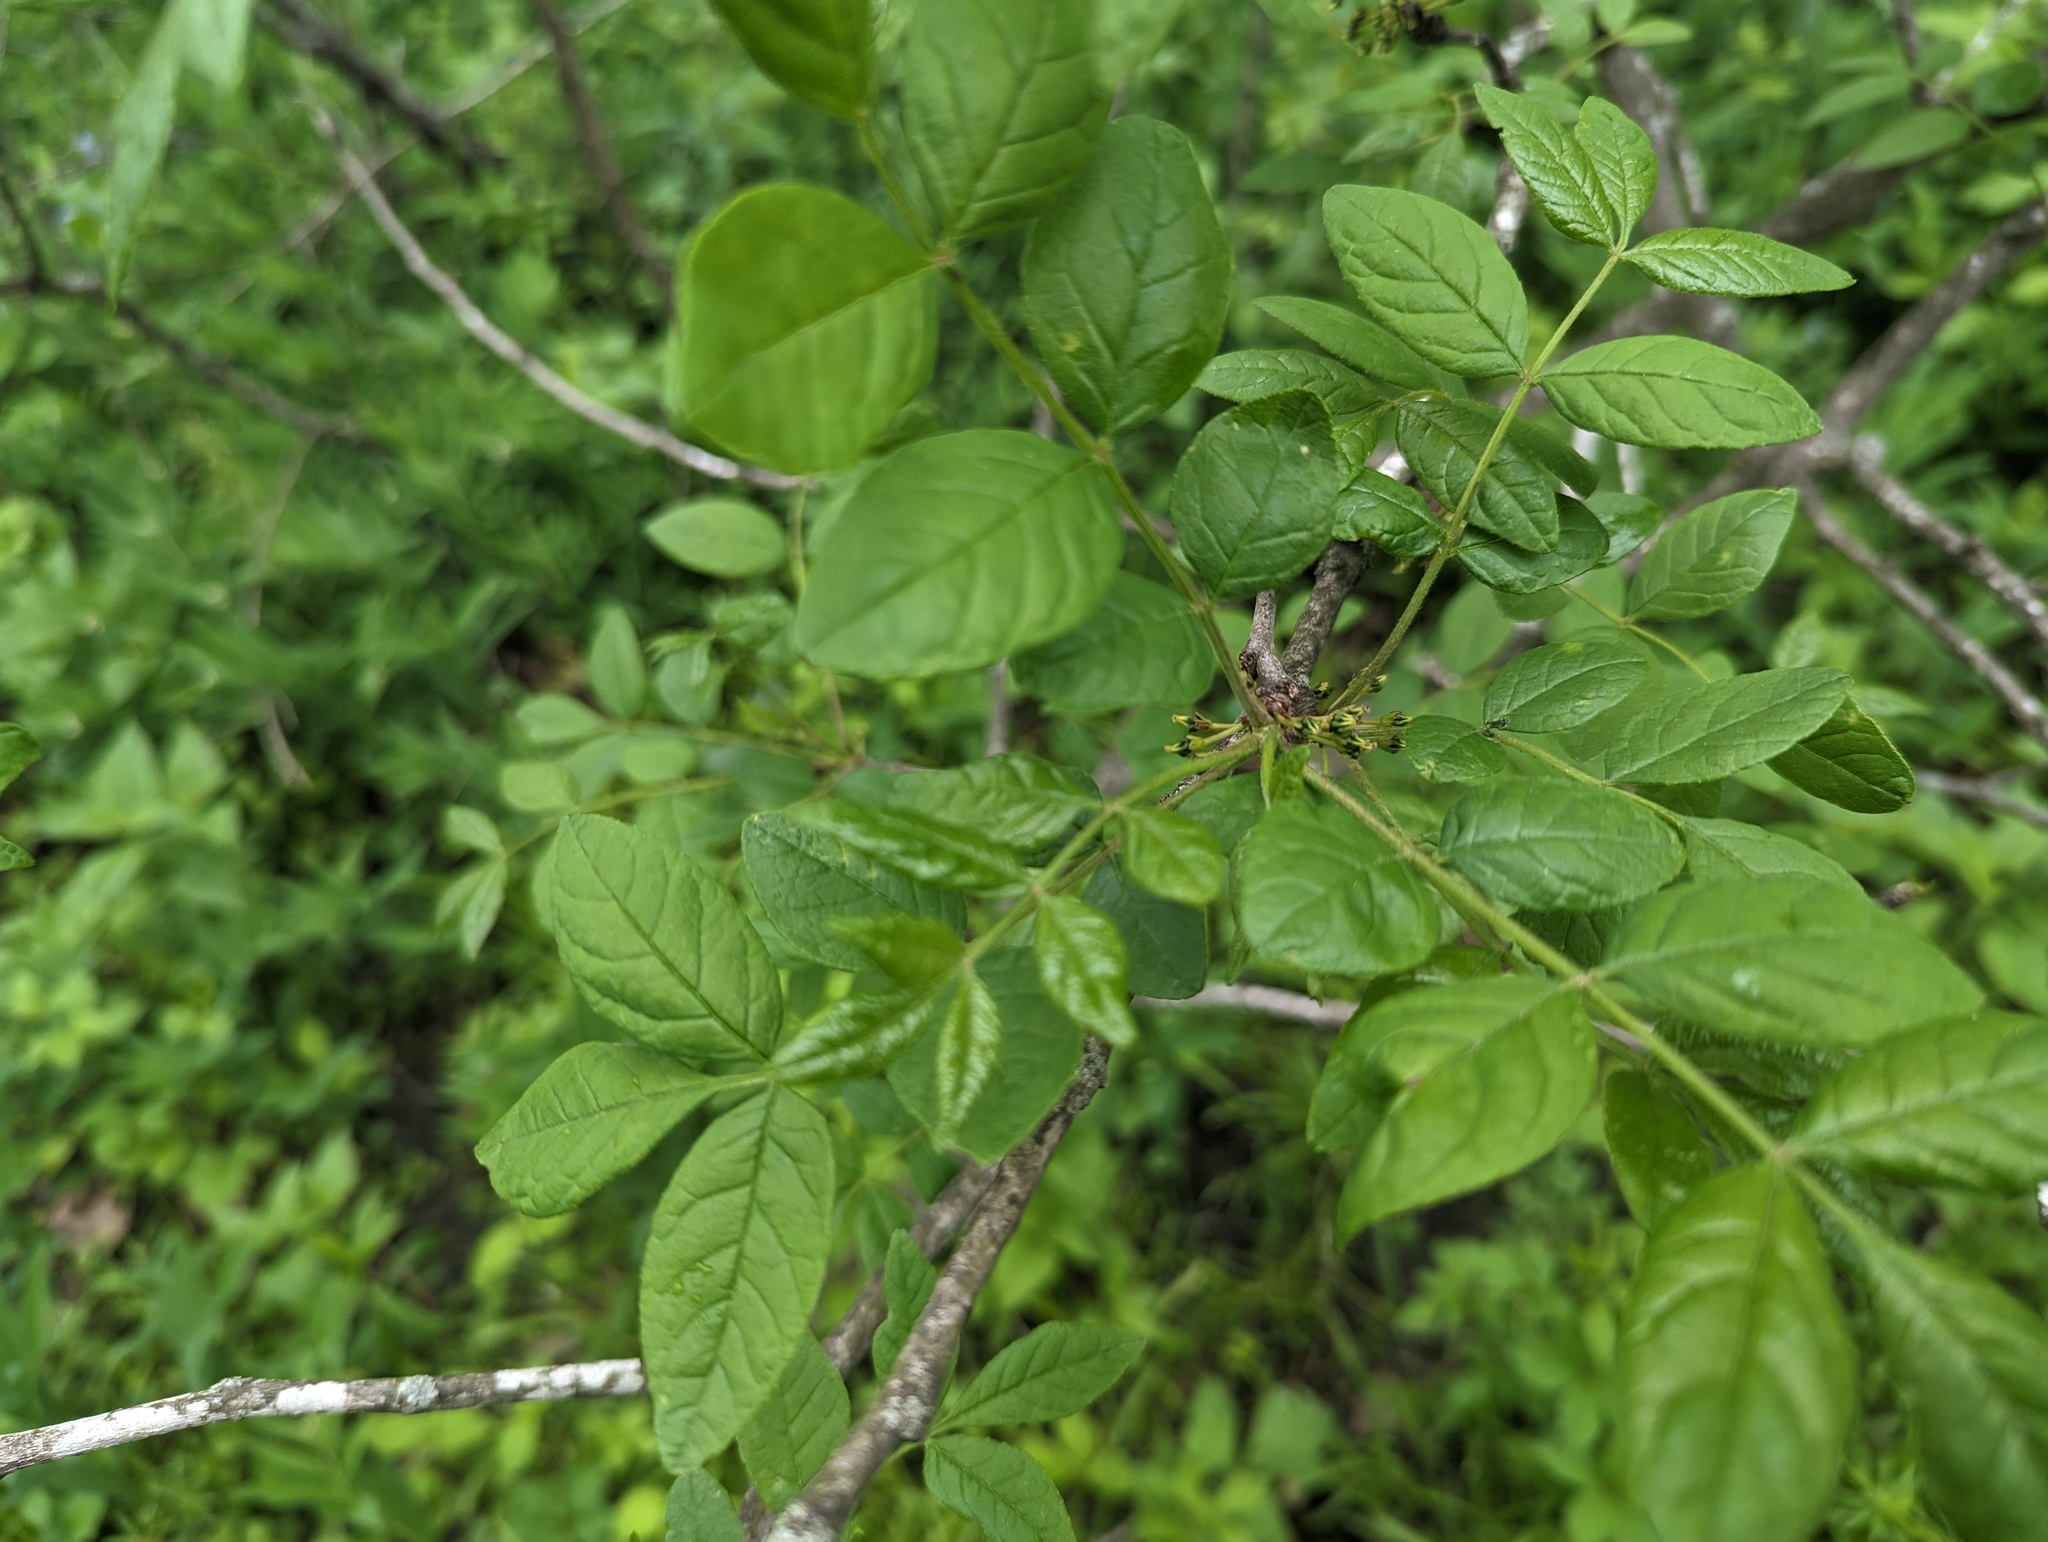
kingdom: Plantae
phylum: Tracheophyta
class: Magnoliopsida
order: Sapindales
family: Rutaceae
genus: Zanthoxylum
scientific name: Zanthoxylum americanum
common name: Northern prickly-ash
